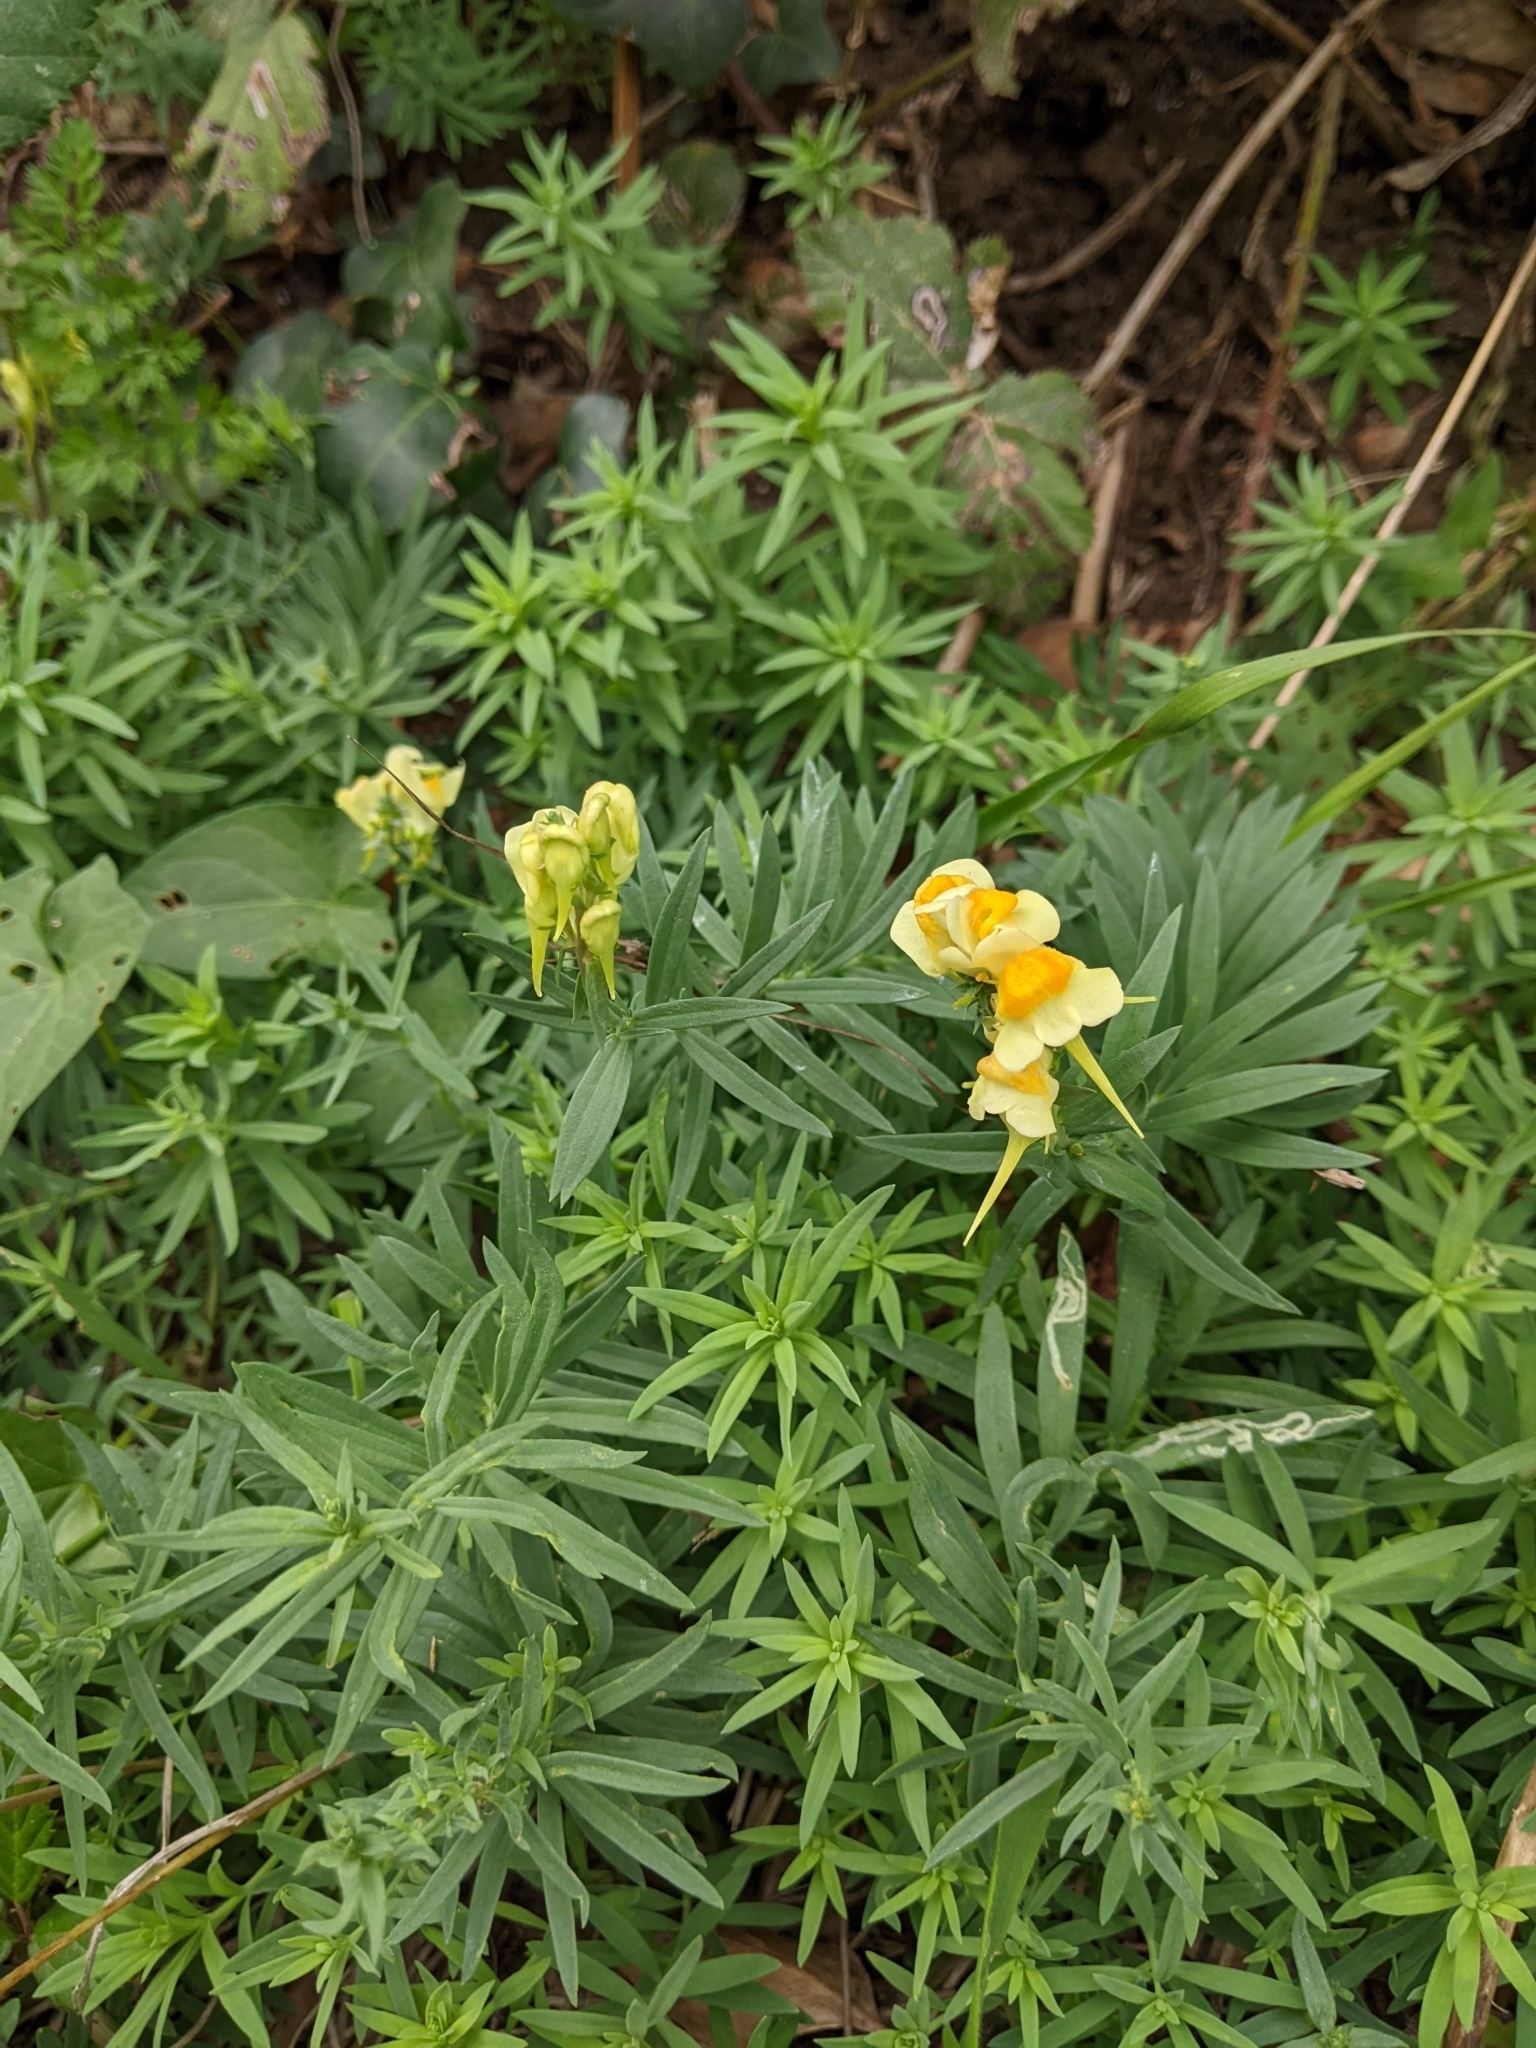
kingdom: Plantae
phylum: Tracheophyta
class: Magnoliopsida
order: Lamiales
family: Plantaginaceae
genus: Linaria
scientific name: Linaria vulgaris
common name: Butter and eggs
